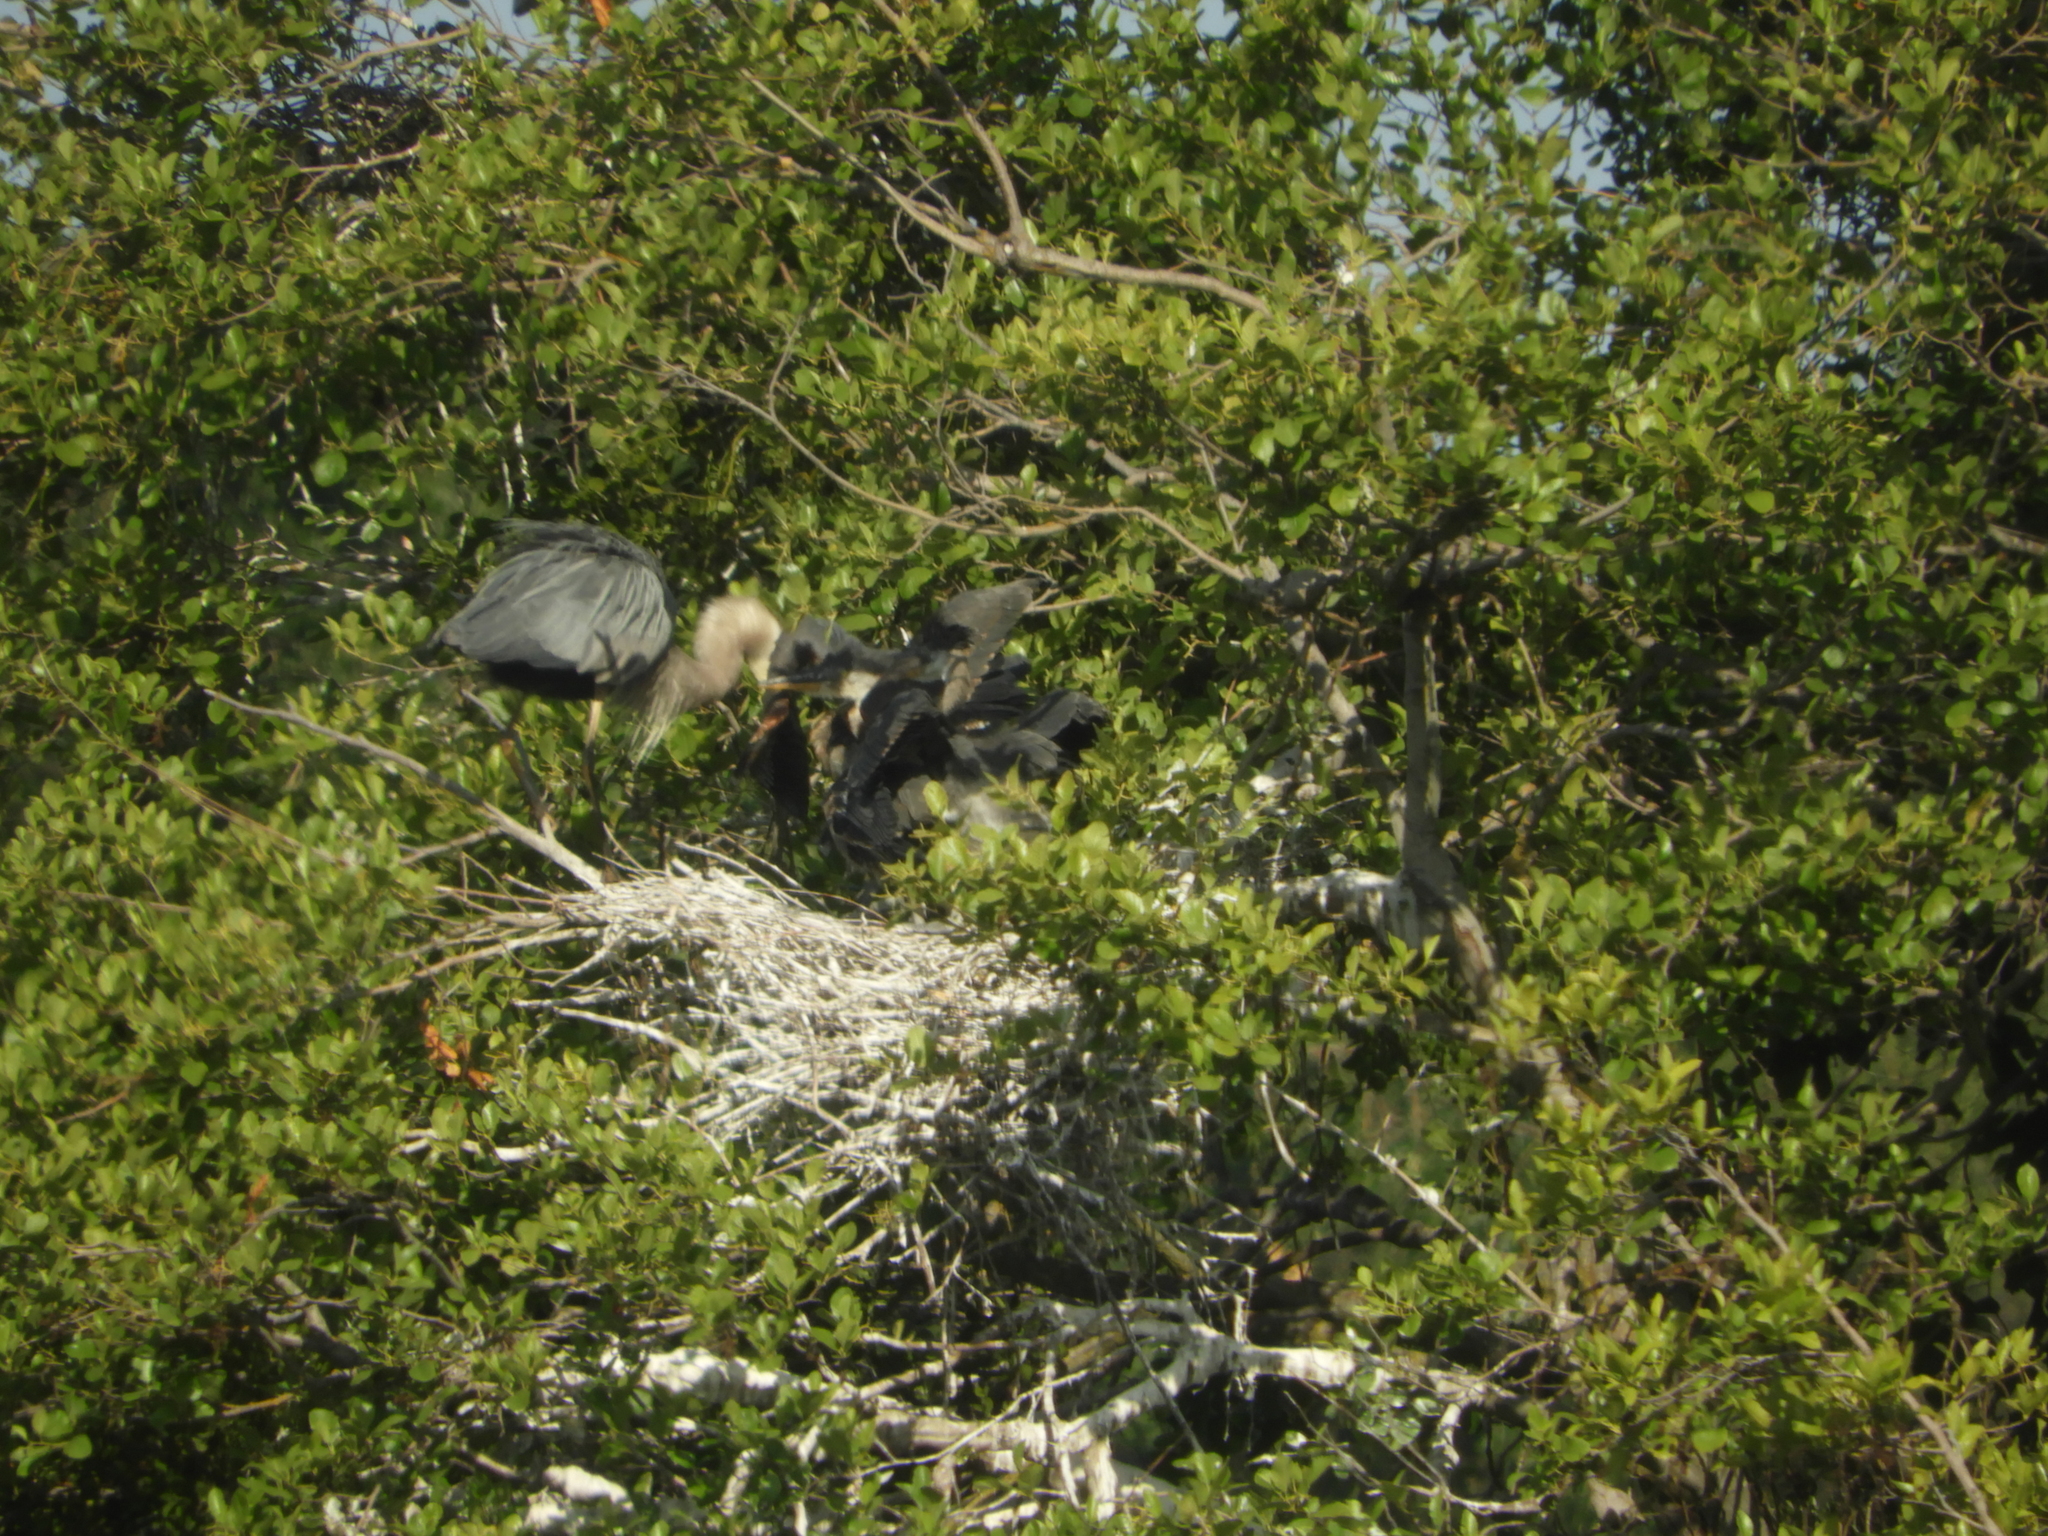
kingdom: Animalia
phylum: Chordata
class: Aves
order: Pelecaniformes
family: Ardeidae
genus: Ardea
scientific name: Ardea herodias
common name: Great blue heron
